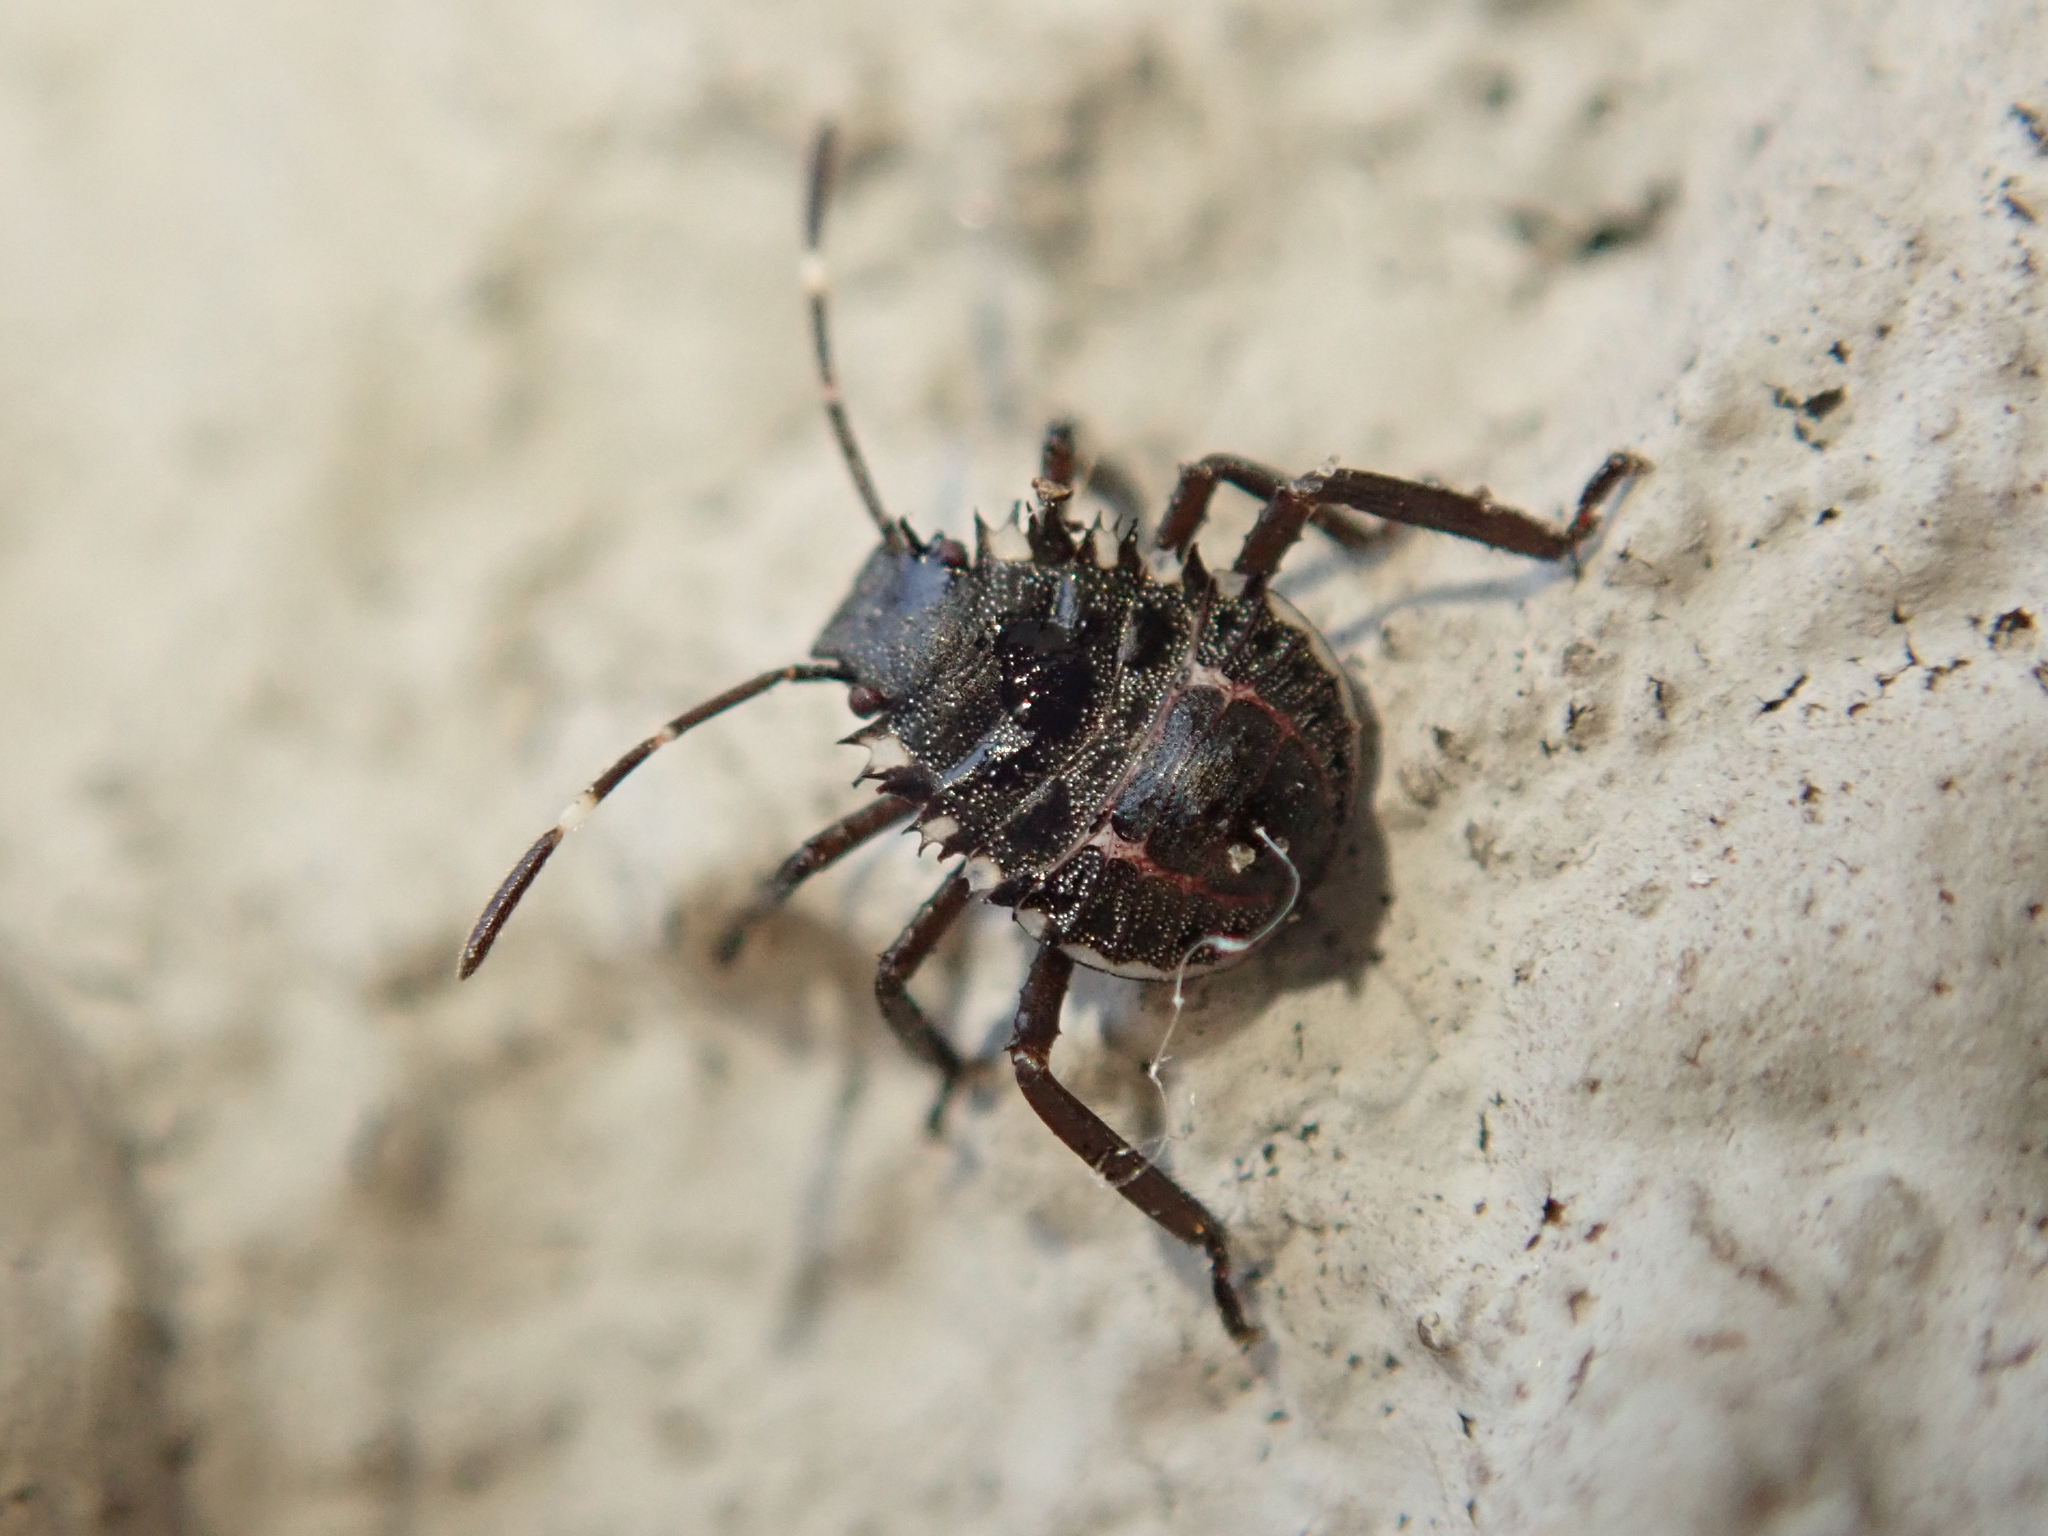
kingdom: Animalia
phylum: Arthropoda
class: Insecta
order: Hemiptera
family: Pentatomidae
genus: Halyomorpha
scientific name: Halyomorpha halys
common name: Brown marmorated stink bug
